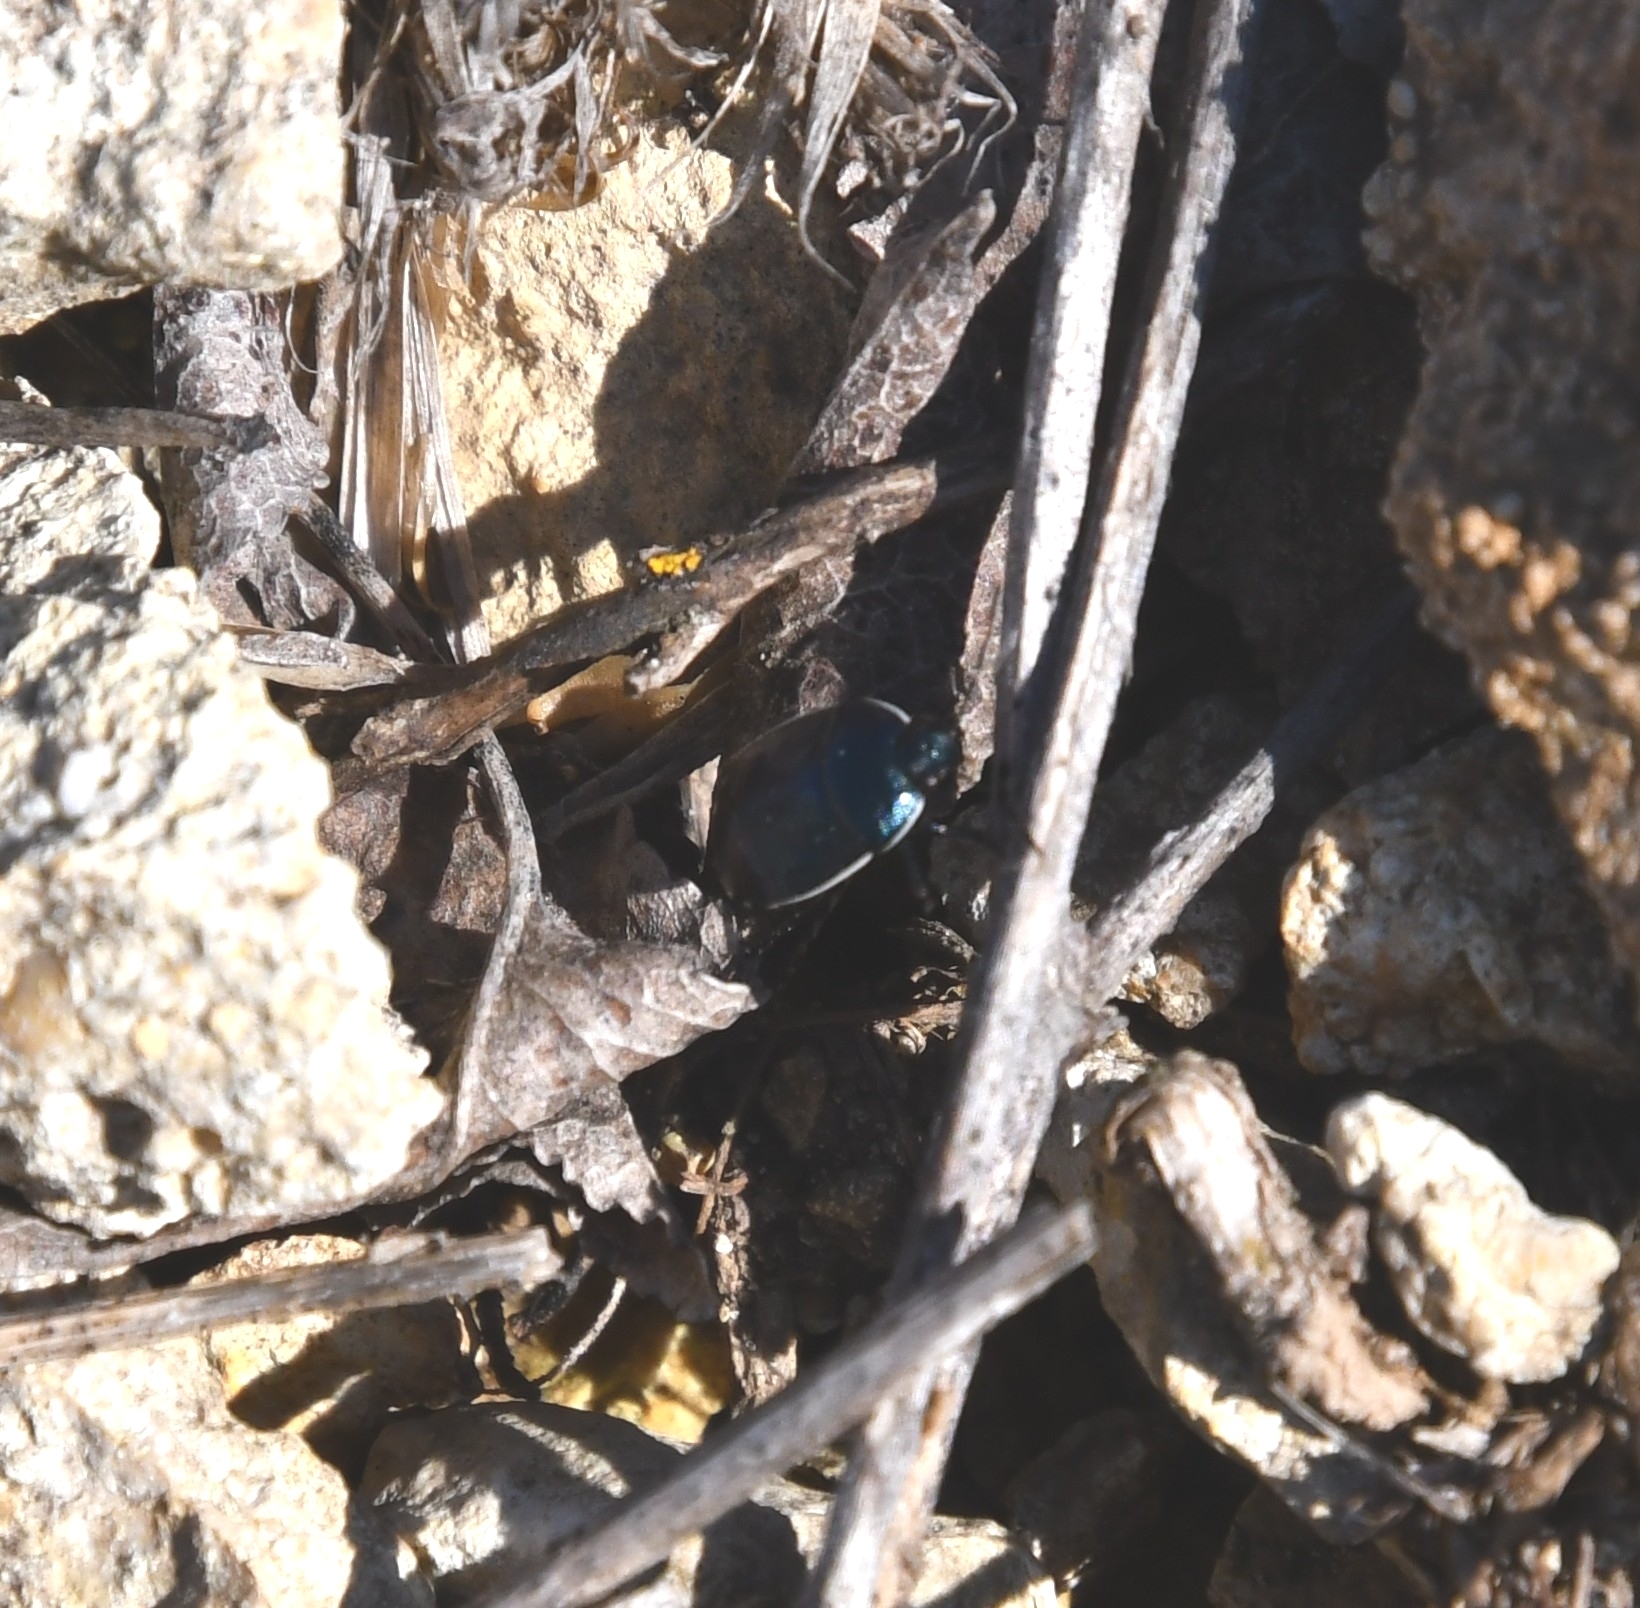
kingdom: Animalia
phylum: Arthropoda
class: Insecta
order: Hemiptera
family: Cydnidae
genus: Canthophorus
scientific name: Canthophorus melanopterus
